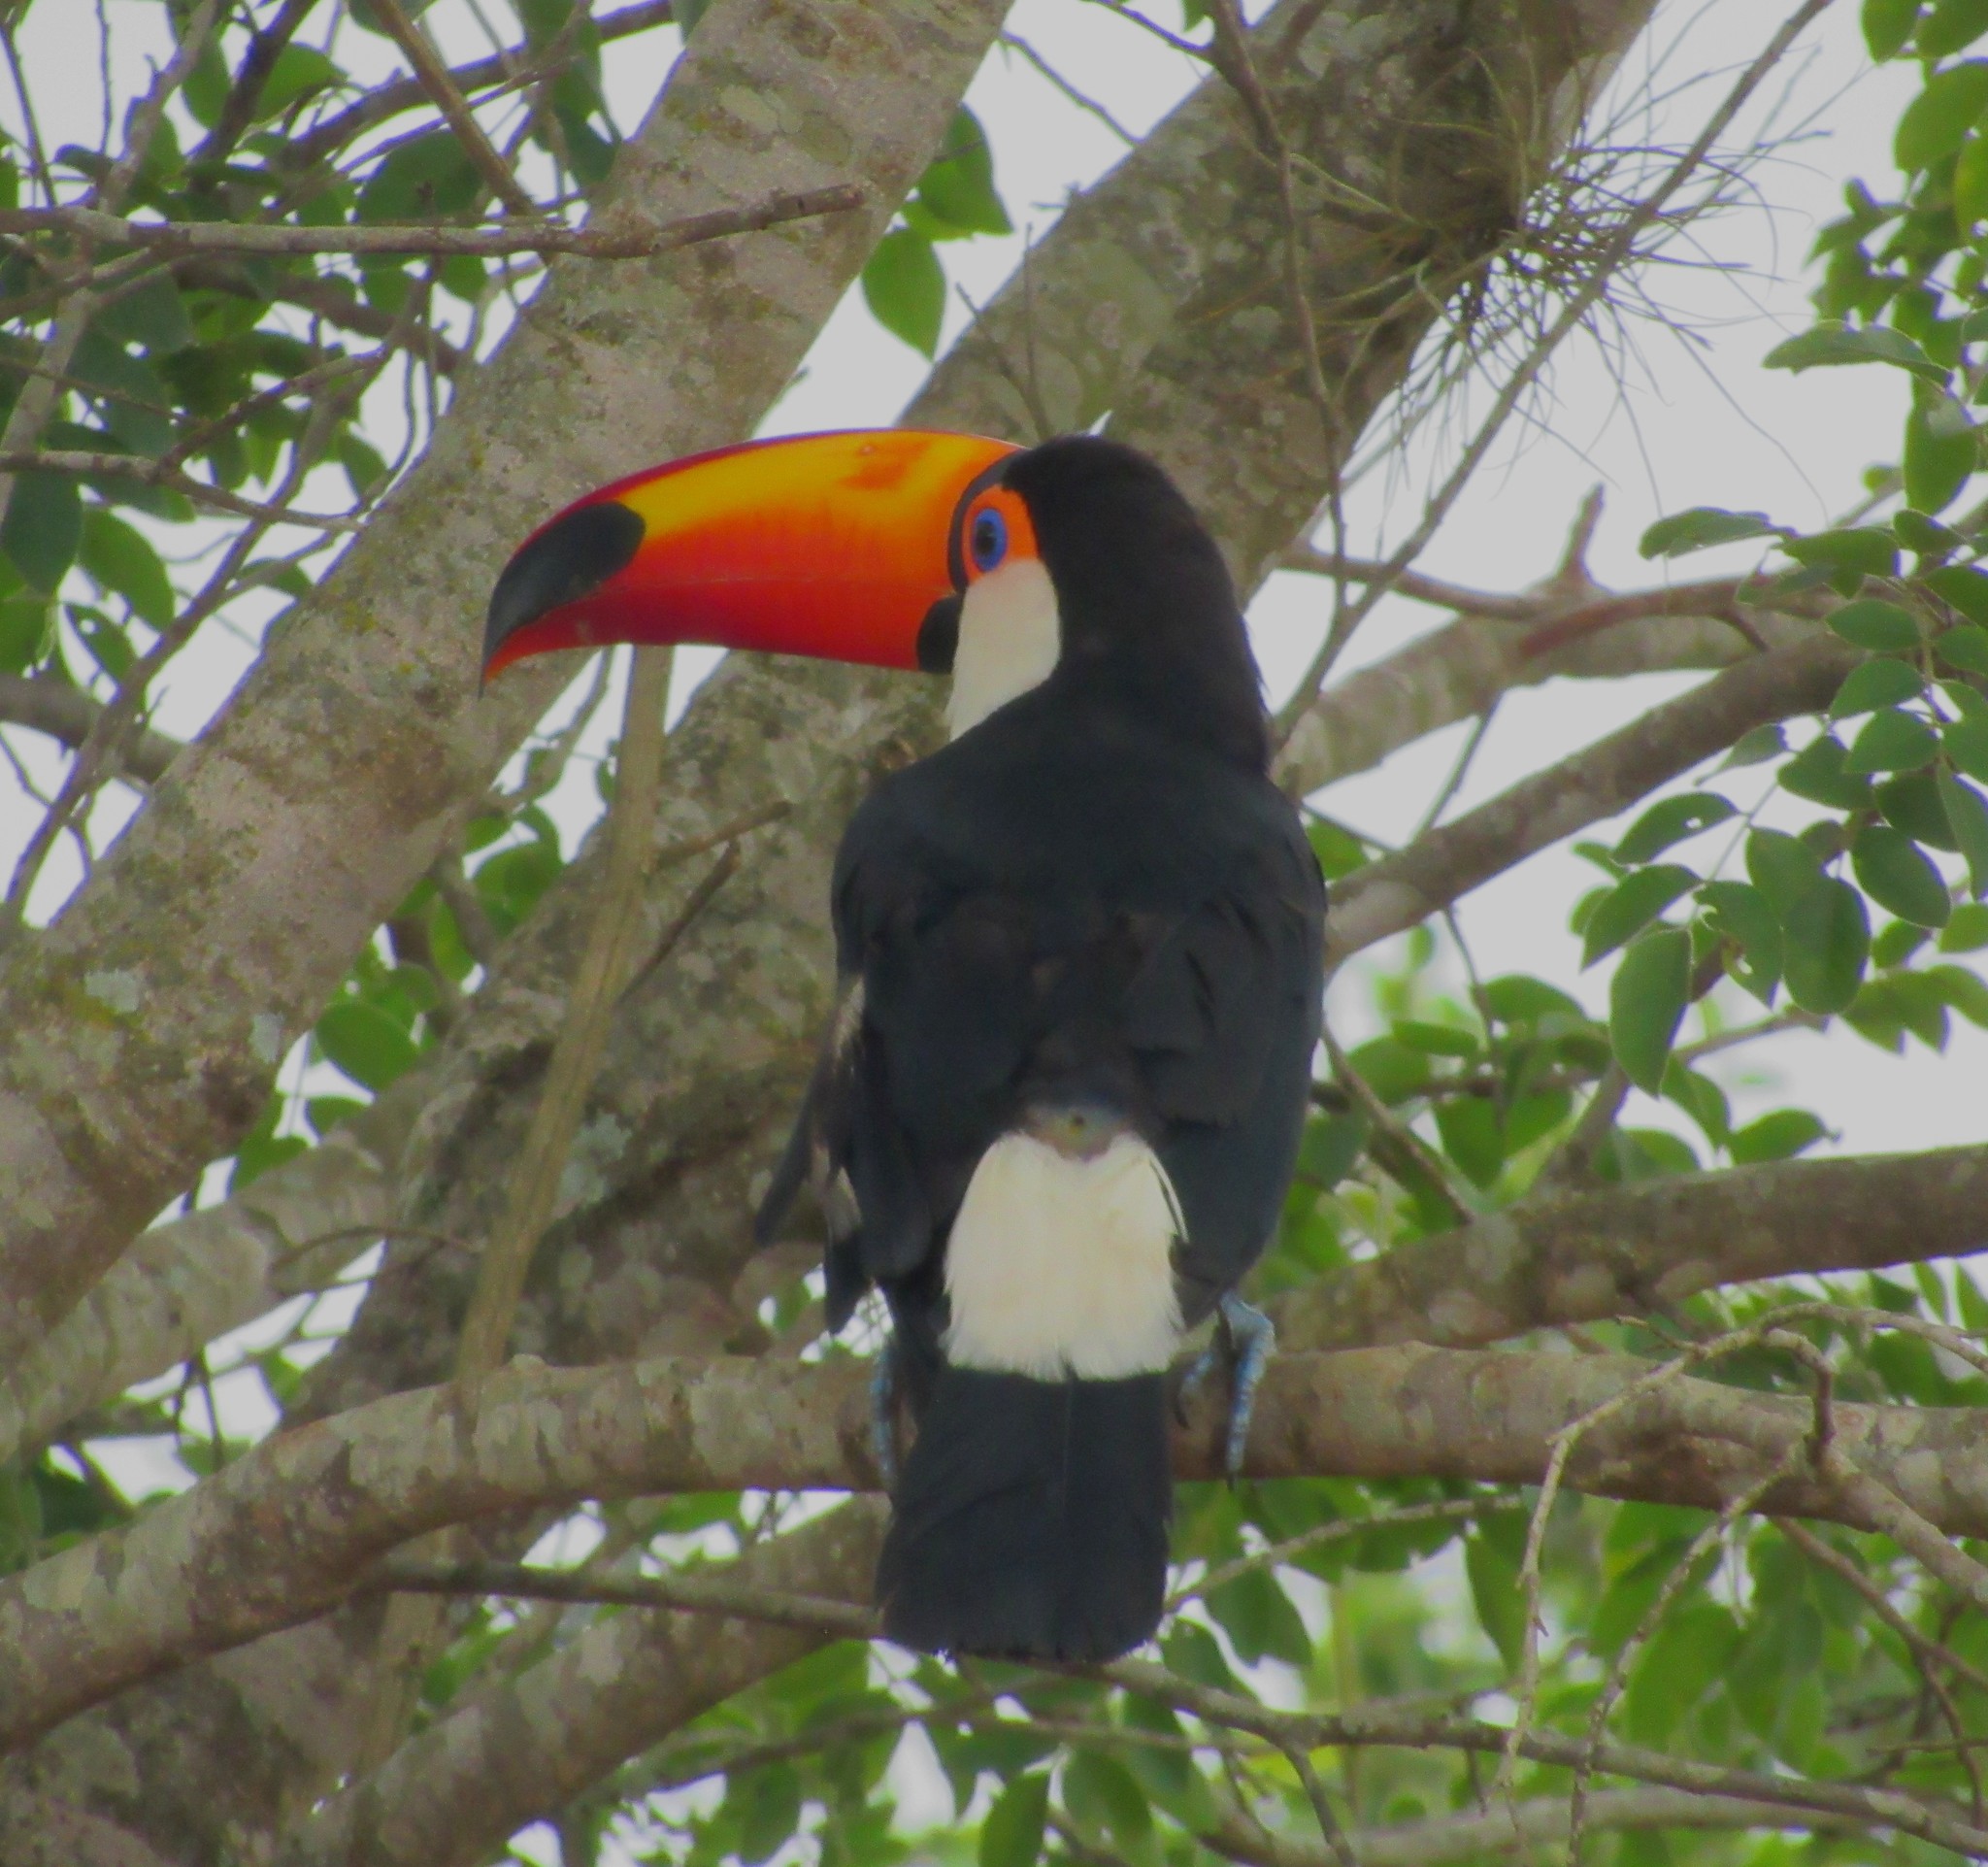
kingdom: Animalia
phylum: Chordata
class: Aves
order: Piciformes
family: Ramphastidae
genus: Ramphastos
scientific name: Ramphastos toco
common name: Toco toucan
